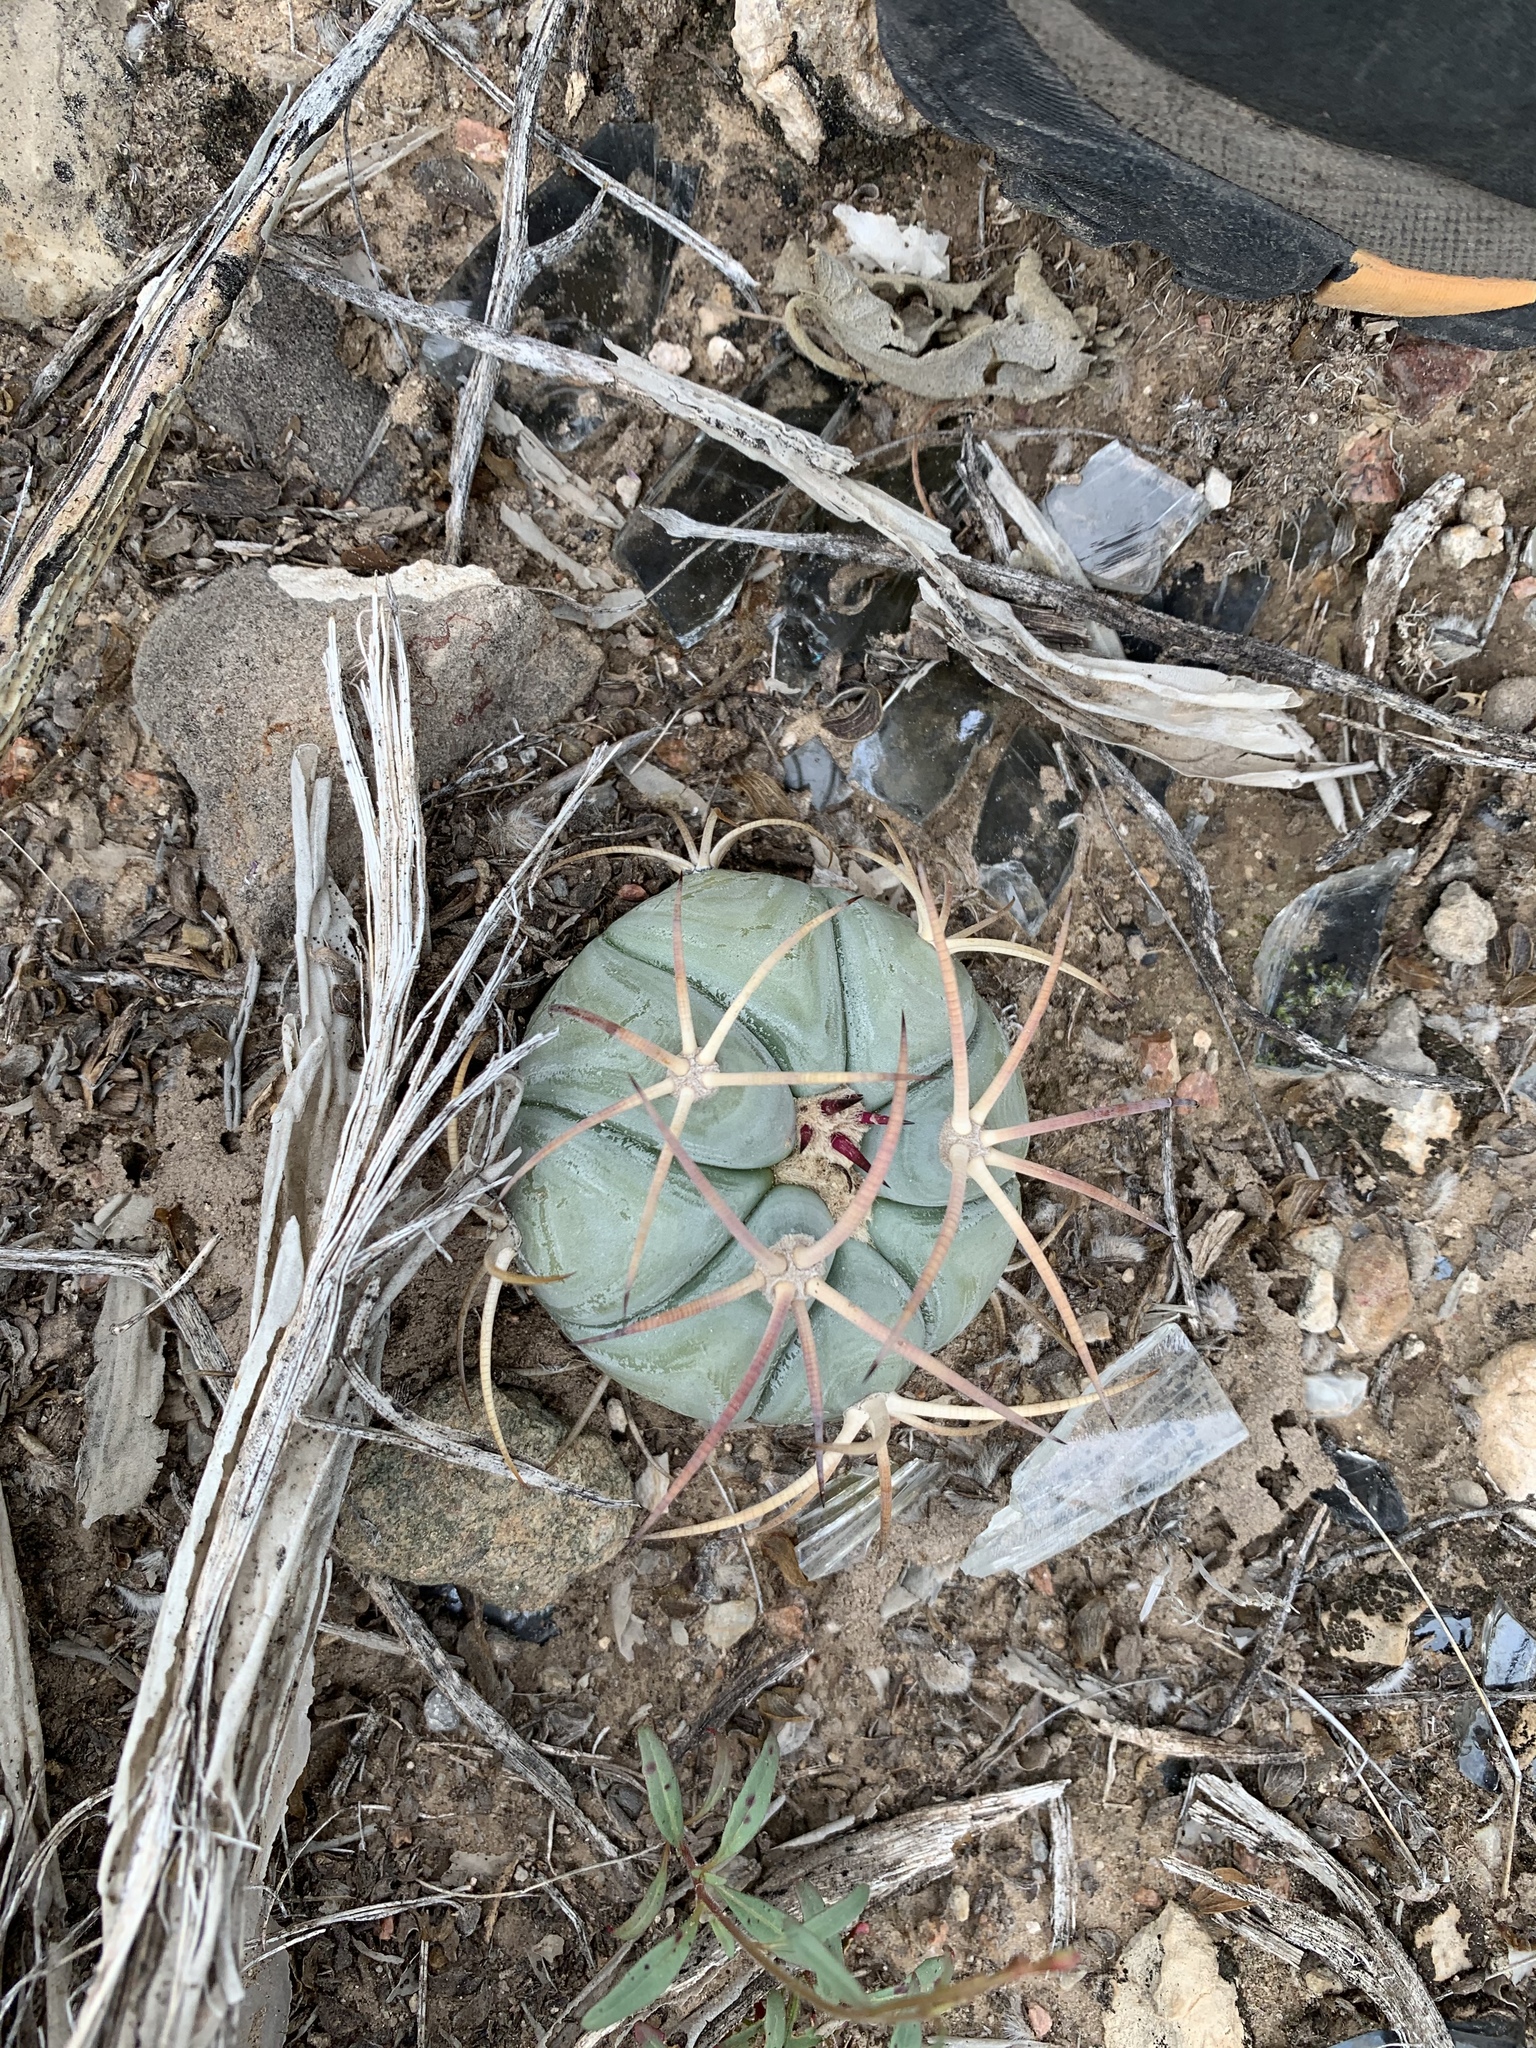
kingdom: Plantae
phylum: Tracheophyta
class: Magnoliopsida
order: Caryophyllales
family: Cactaceae
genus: Echinocactus
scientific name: Echinocactus horizonthalonius
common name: Devilshead
